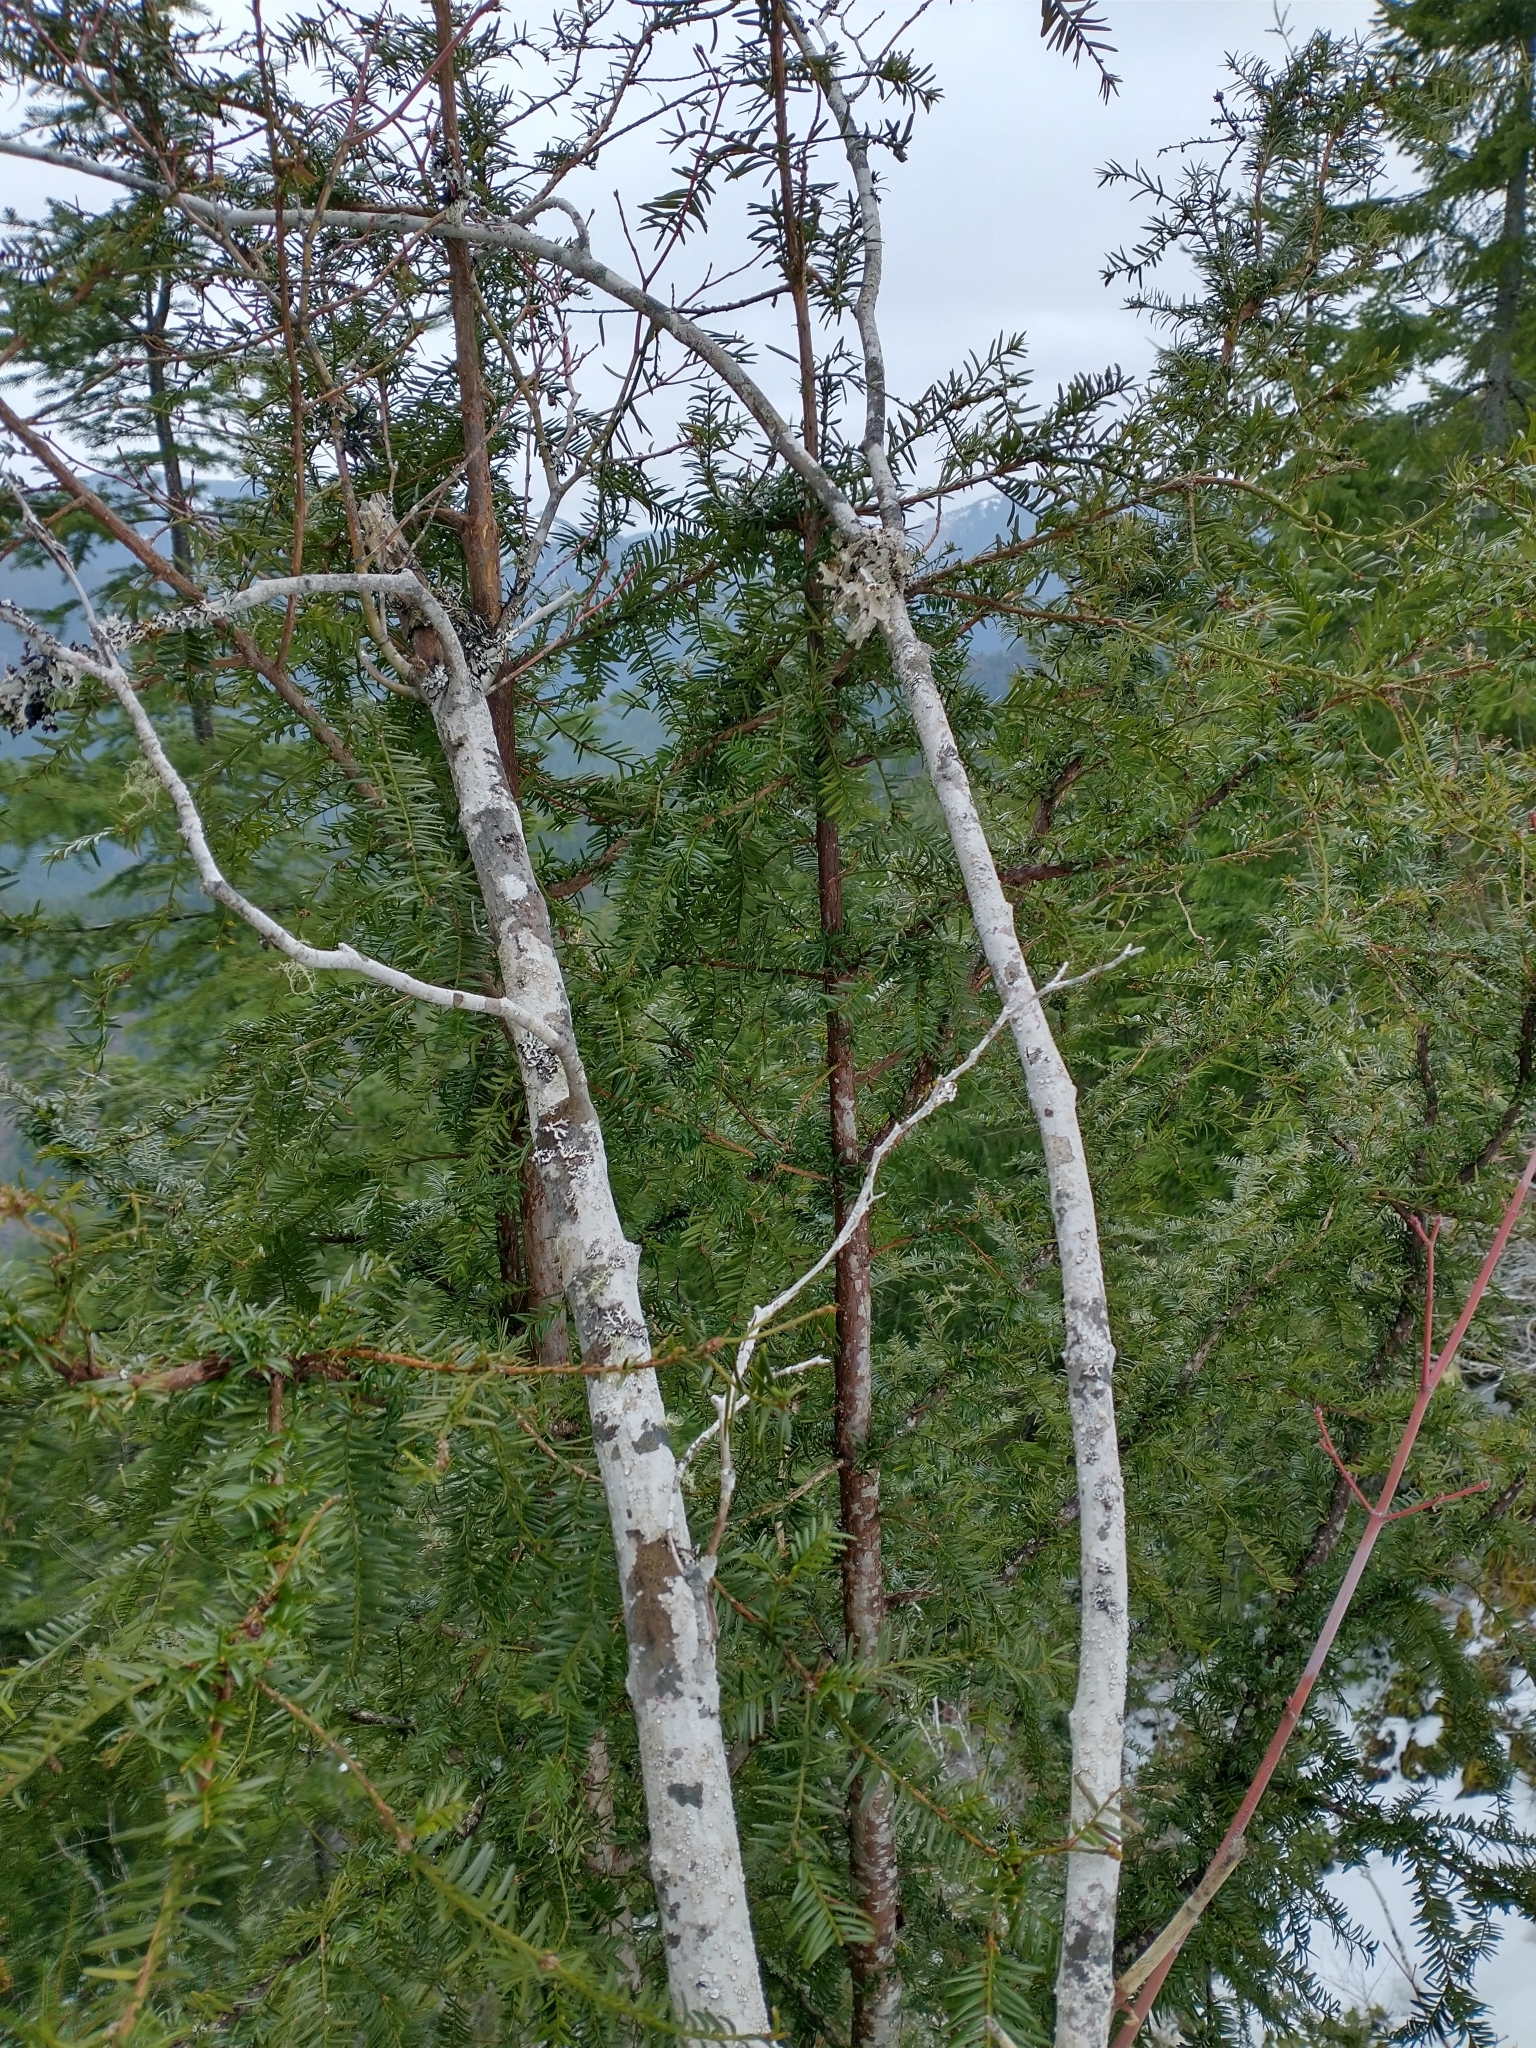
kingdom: Plantae
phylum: Tracheophyta
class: Pinopsida
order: Pinales
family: Taxaceae
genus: Taxus
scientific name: Taxus brevifolia
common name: Pacific yew
